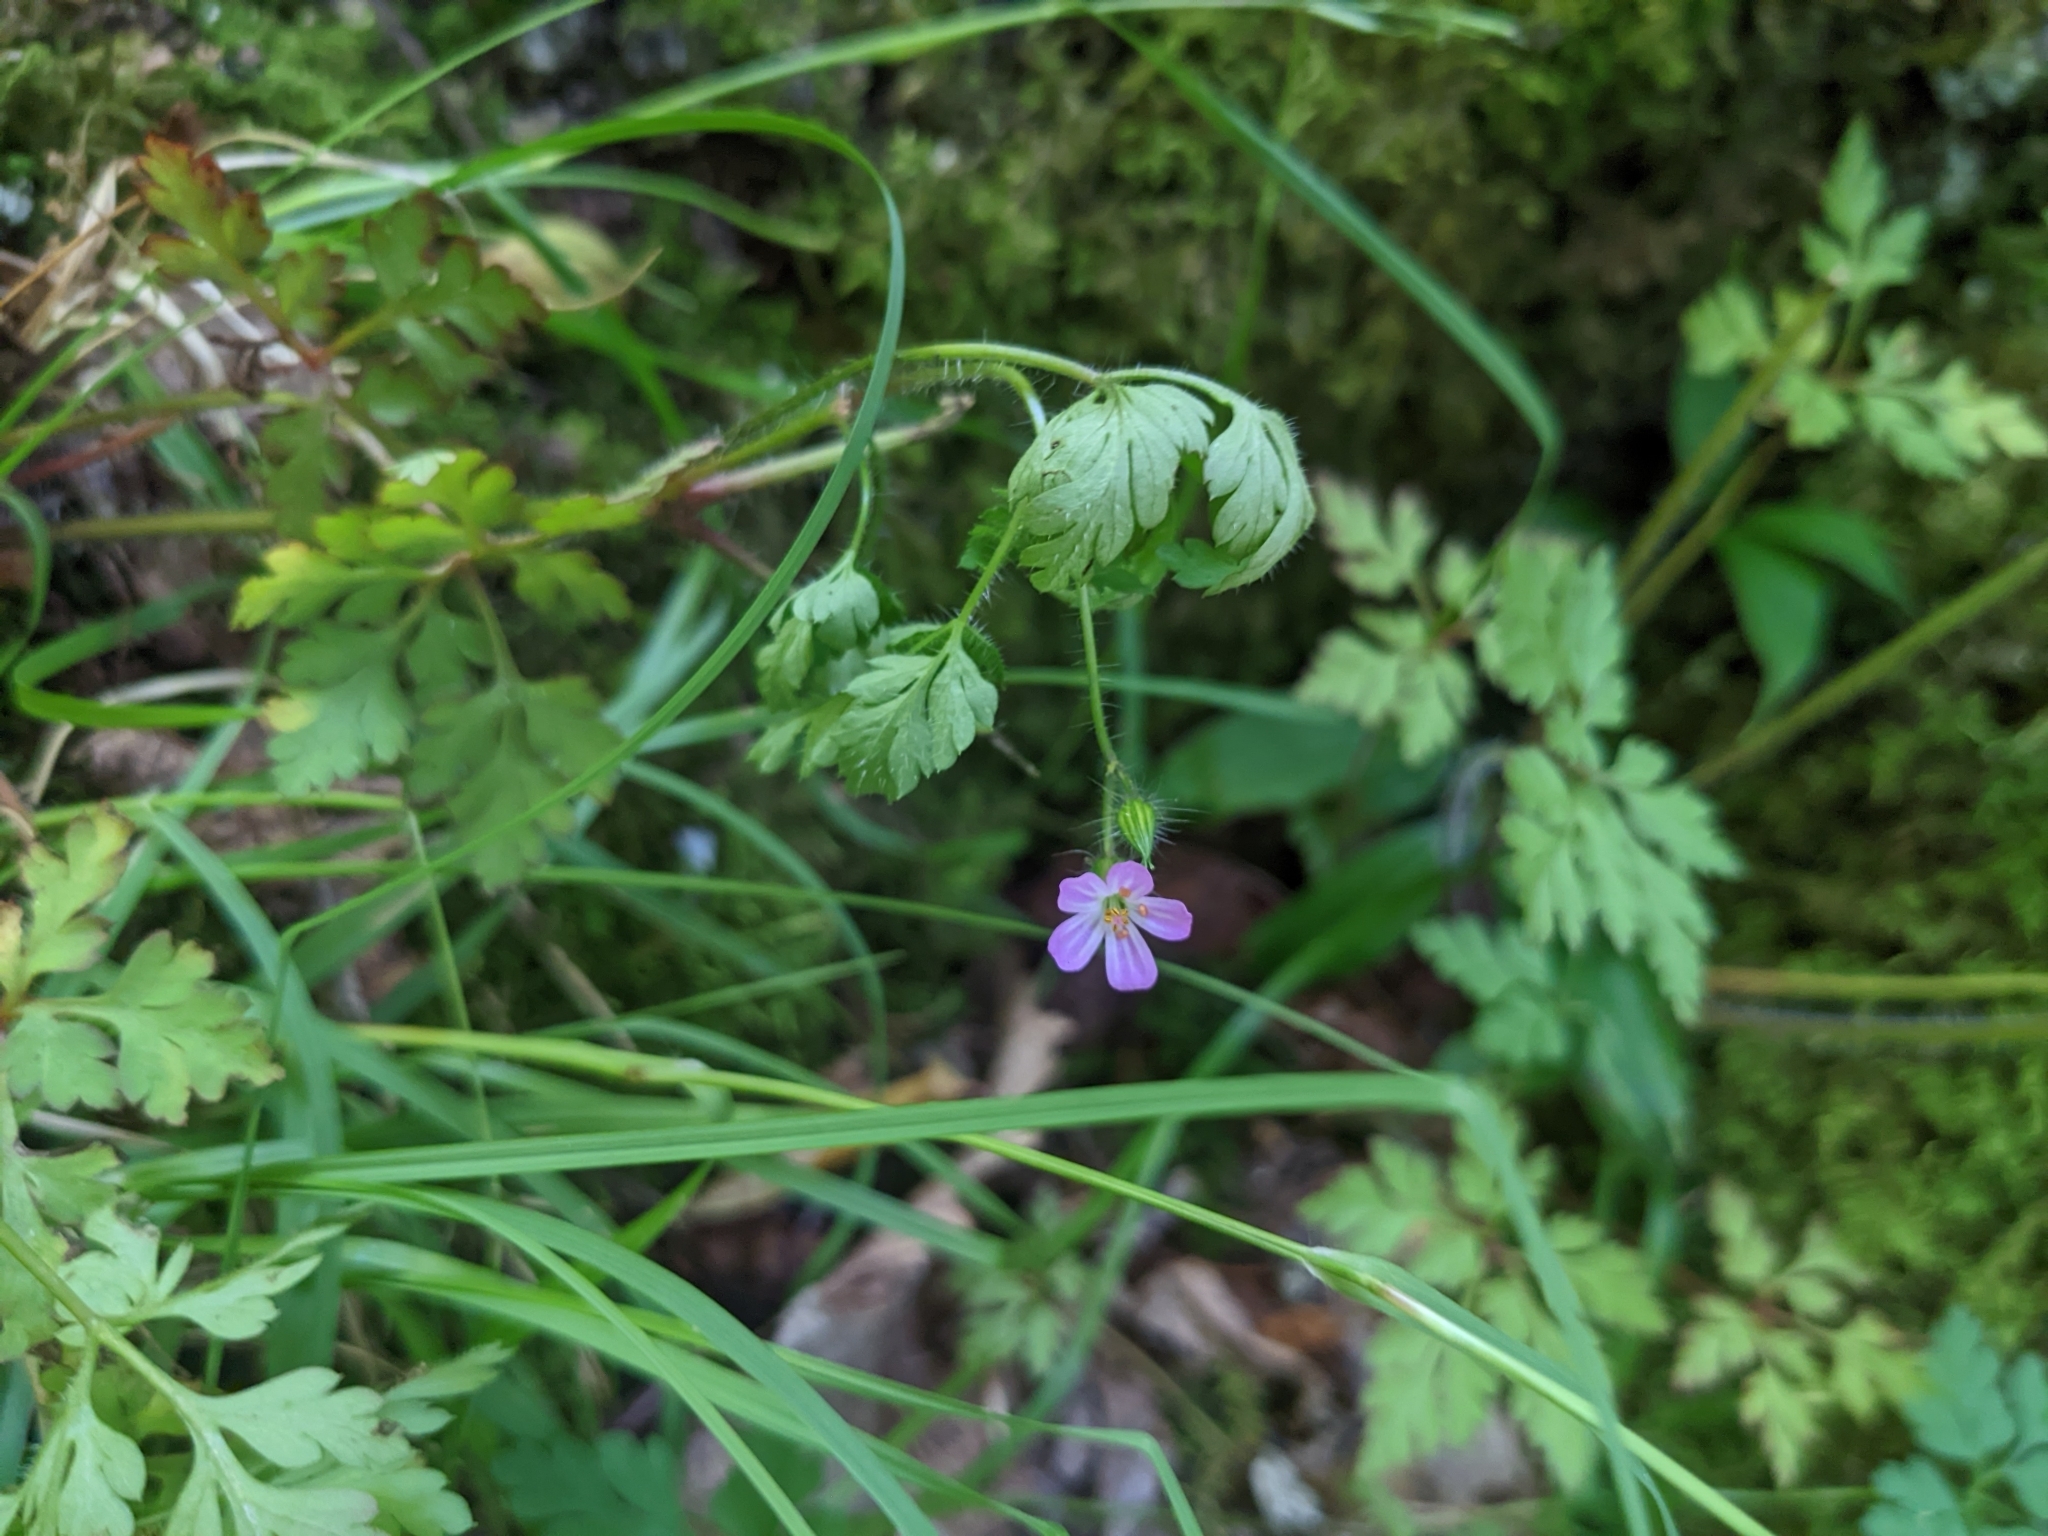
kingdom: Plantae
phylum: Tracheophyta
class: Magnoliopsida
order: Geraniales
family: Geraniaceae
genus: Geranium
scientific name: Geranium robertianum
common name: Herb-robert
